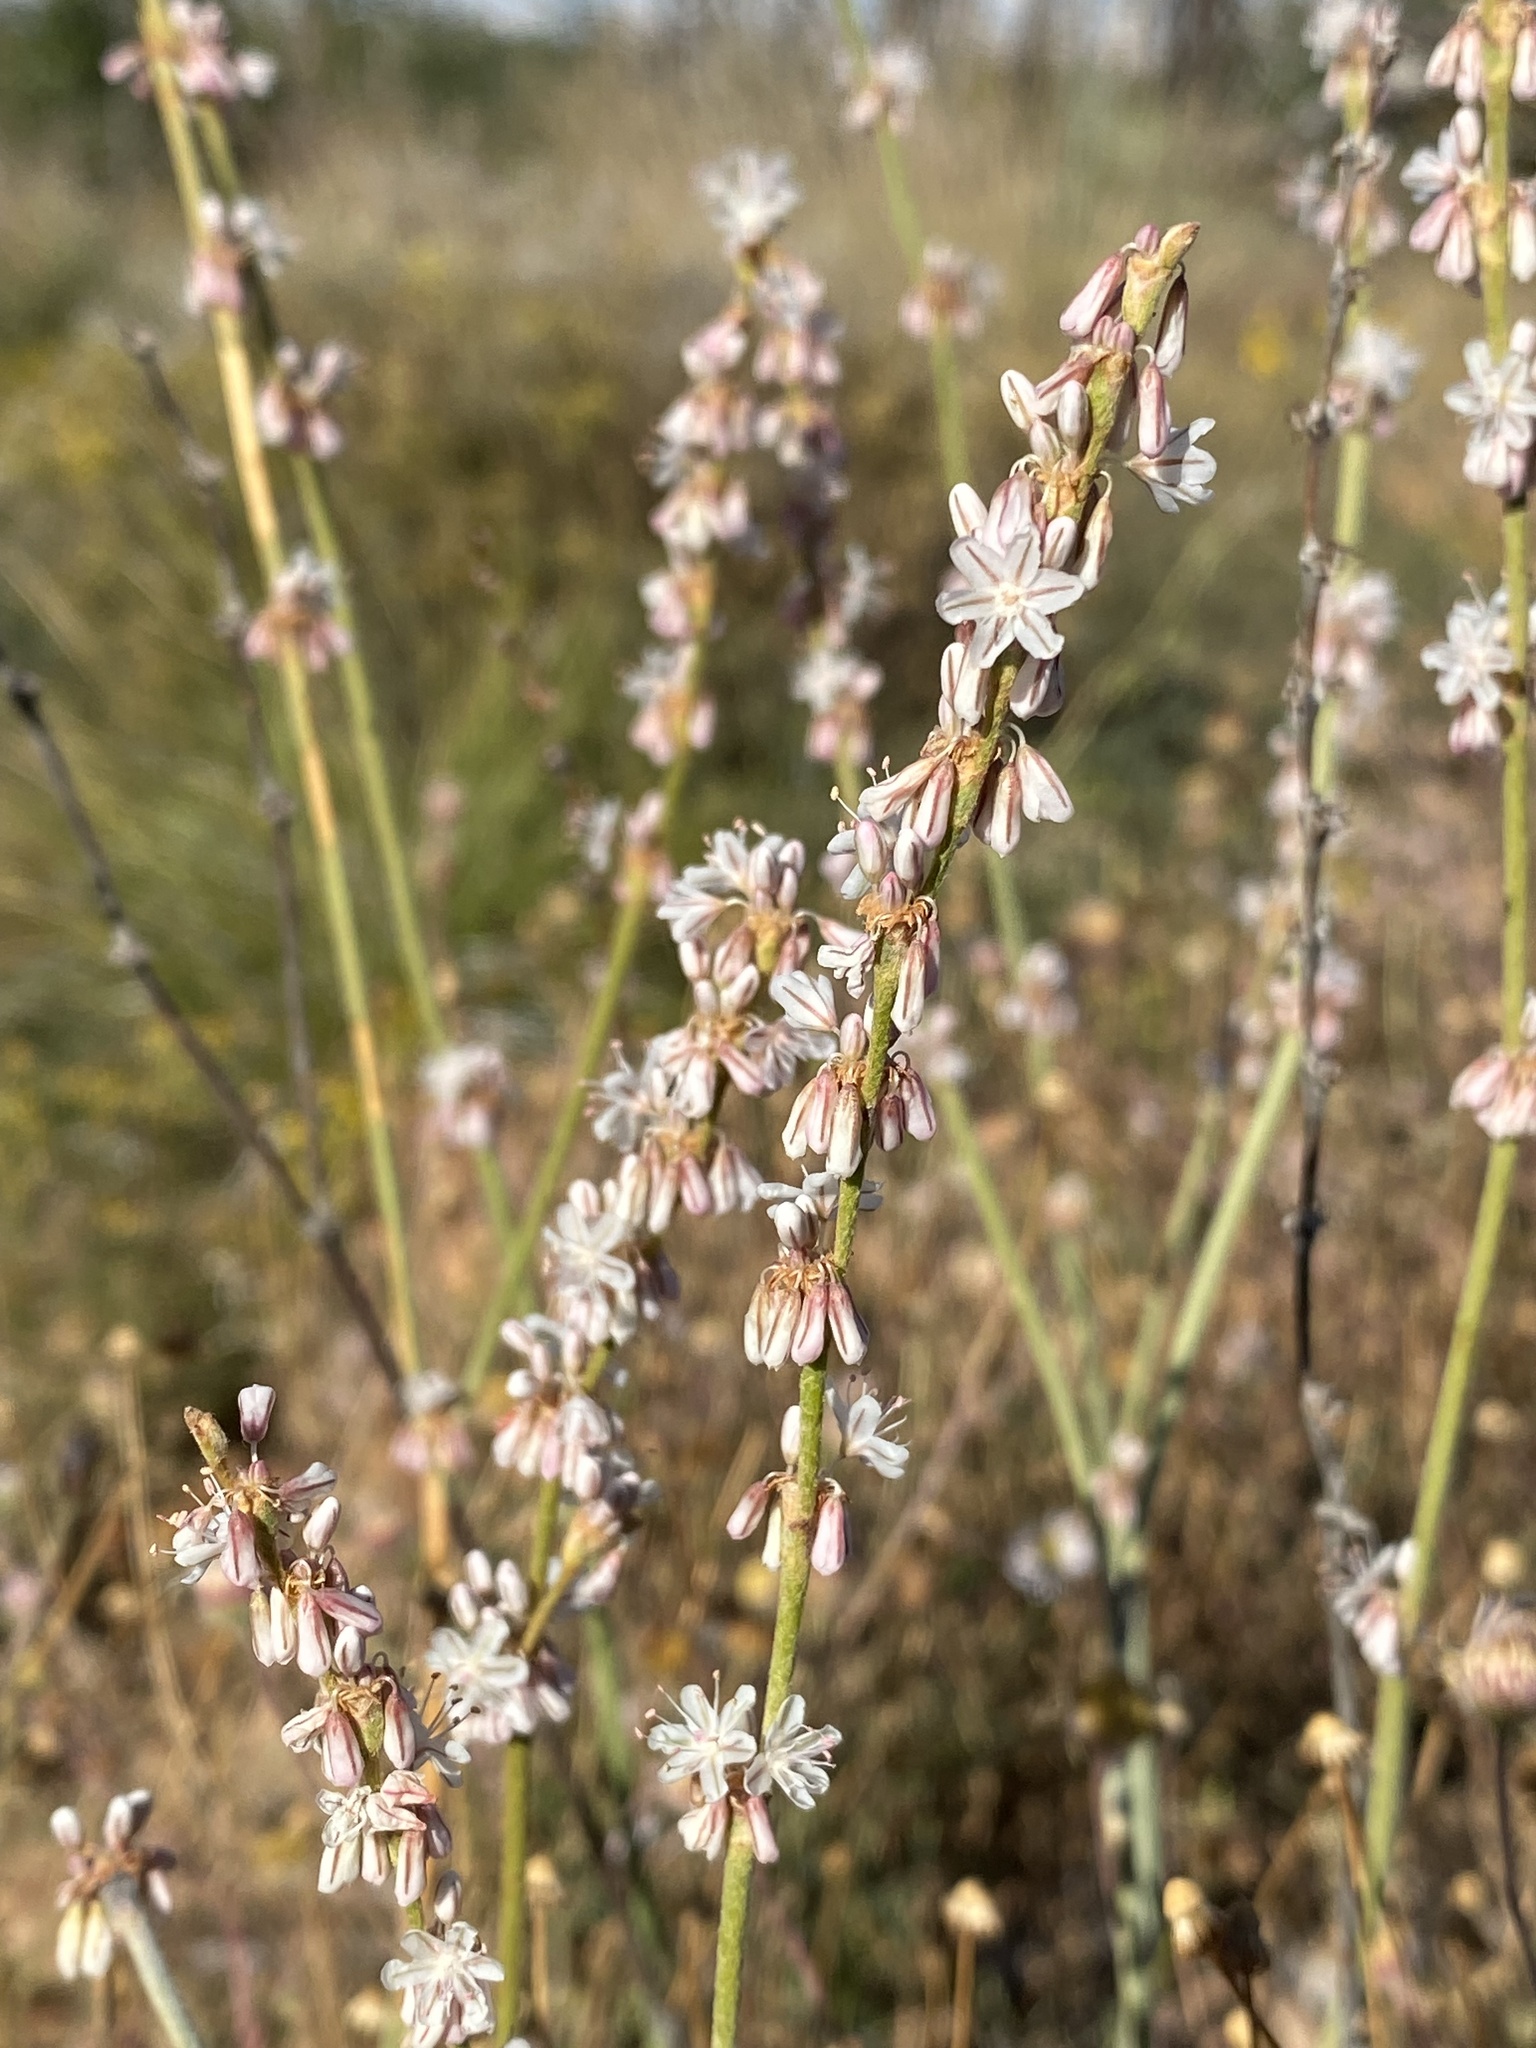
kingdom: Plantae
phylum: Tracheophyta
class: Magnoliopsida
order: Caryophyllales
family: Polygonaceae
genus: Eriogonum
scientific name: Eriogonum racemosum
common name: Redroot wild buckwheat
